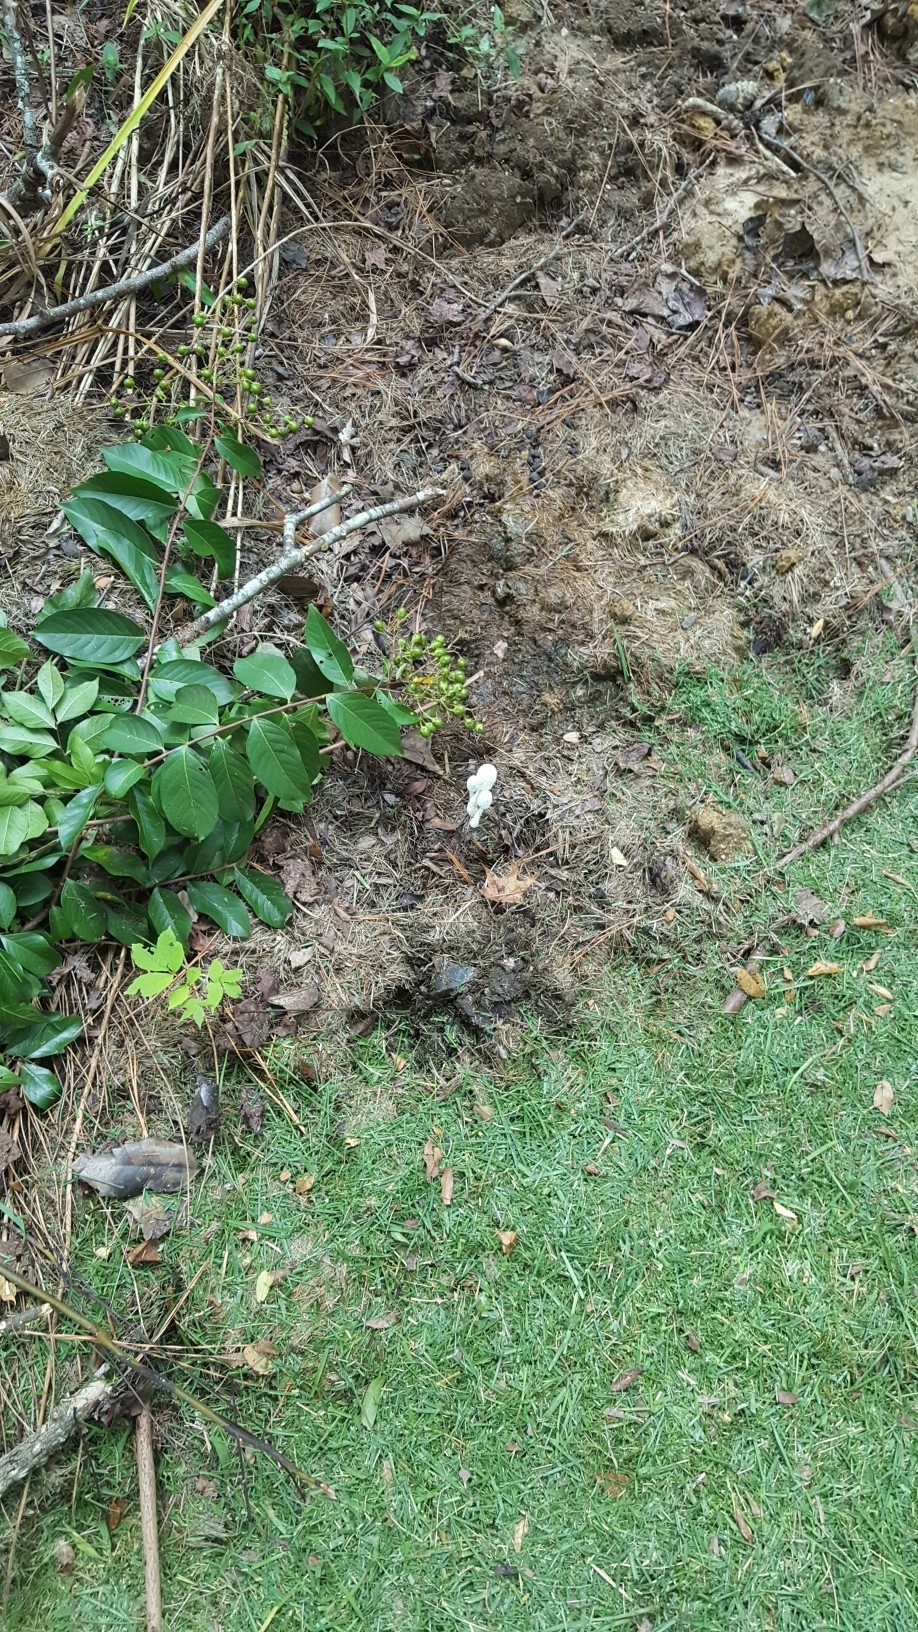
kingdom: Fungi
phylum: Basidiomycota
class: Agaricomycetes
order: Agaricales
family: Agaricaceae
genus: Leucocoprinus
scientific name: Leucocoprinus cretaceus
